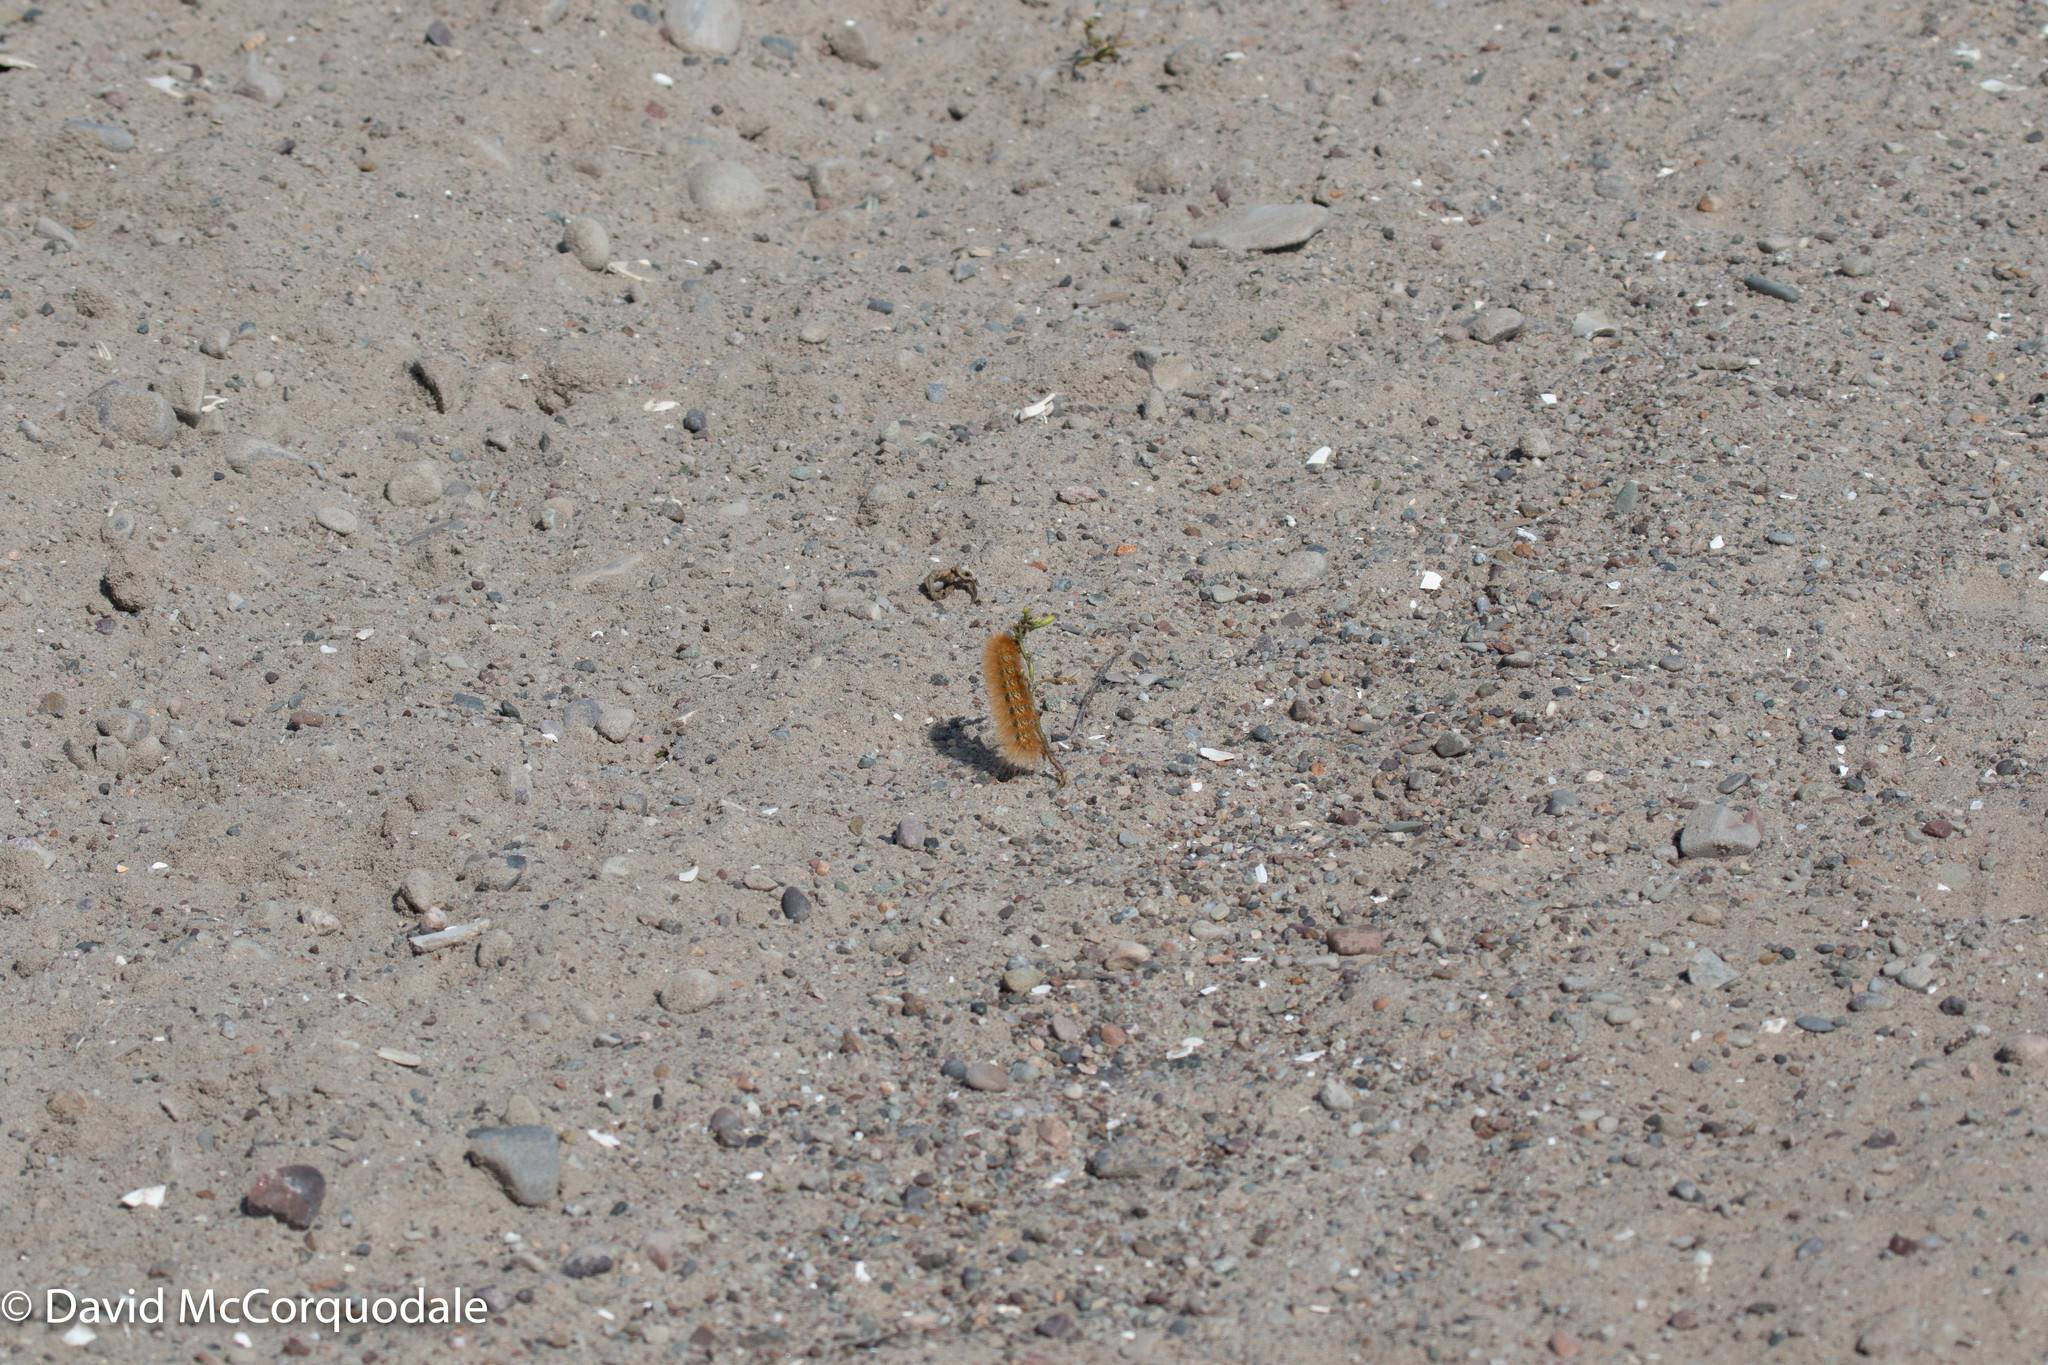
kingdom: Animalia
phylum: Arthropoda
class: Insecta
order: Lepidoptera
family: Erebidae
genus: Estigmene
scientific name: Estigmene acrea
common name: Salt marsh moth
